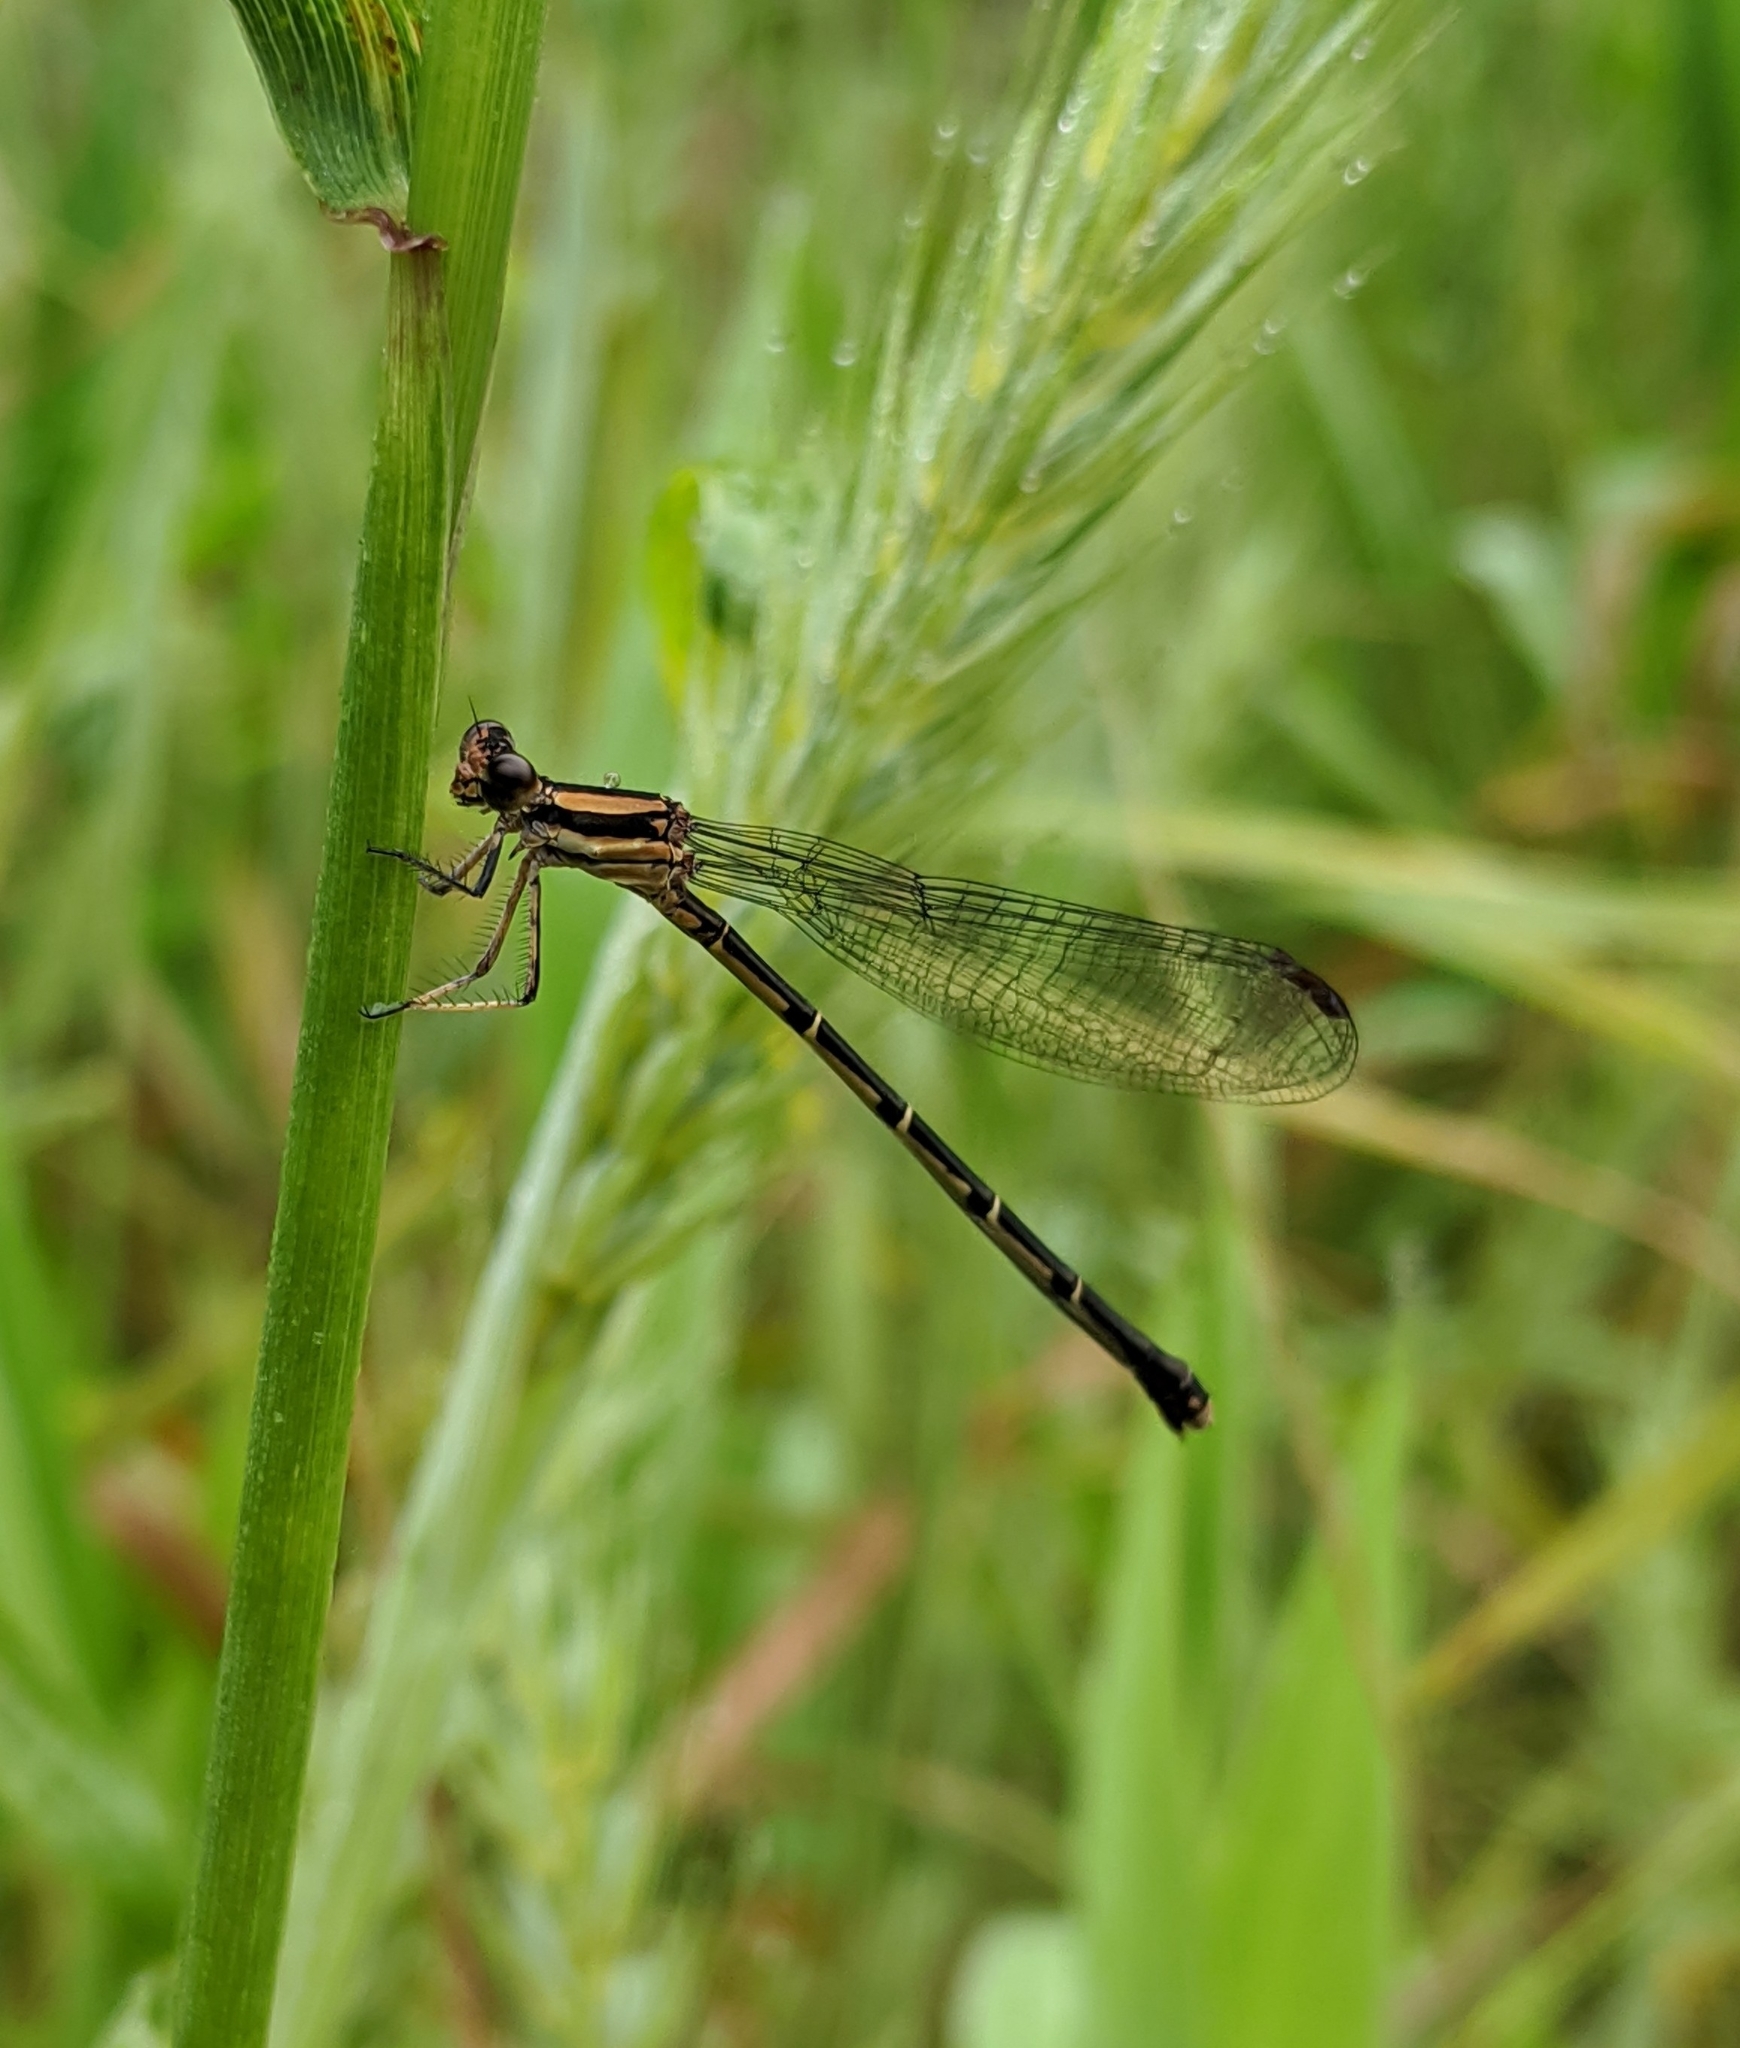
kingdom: Animalia
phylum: Arthropoda
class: Insecta
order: Odonata
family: Coenagrionidae
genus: Argia
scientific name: Argia tibialis
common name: Blue-tipped dancer
